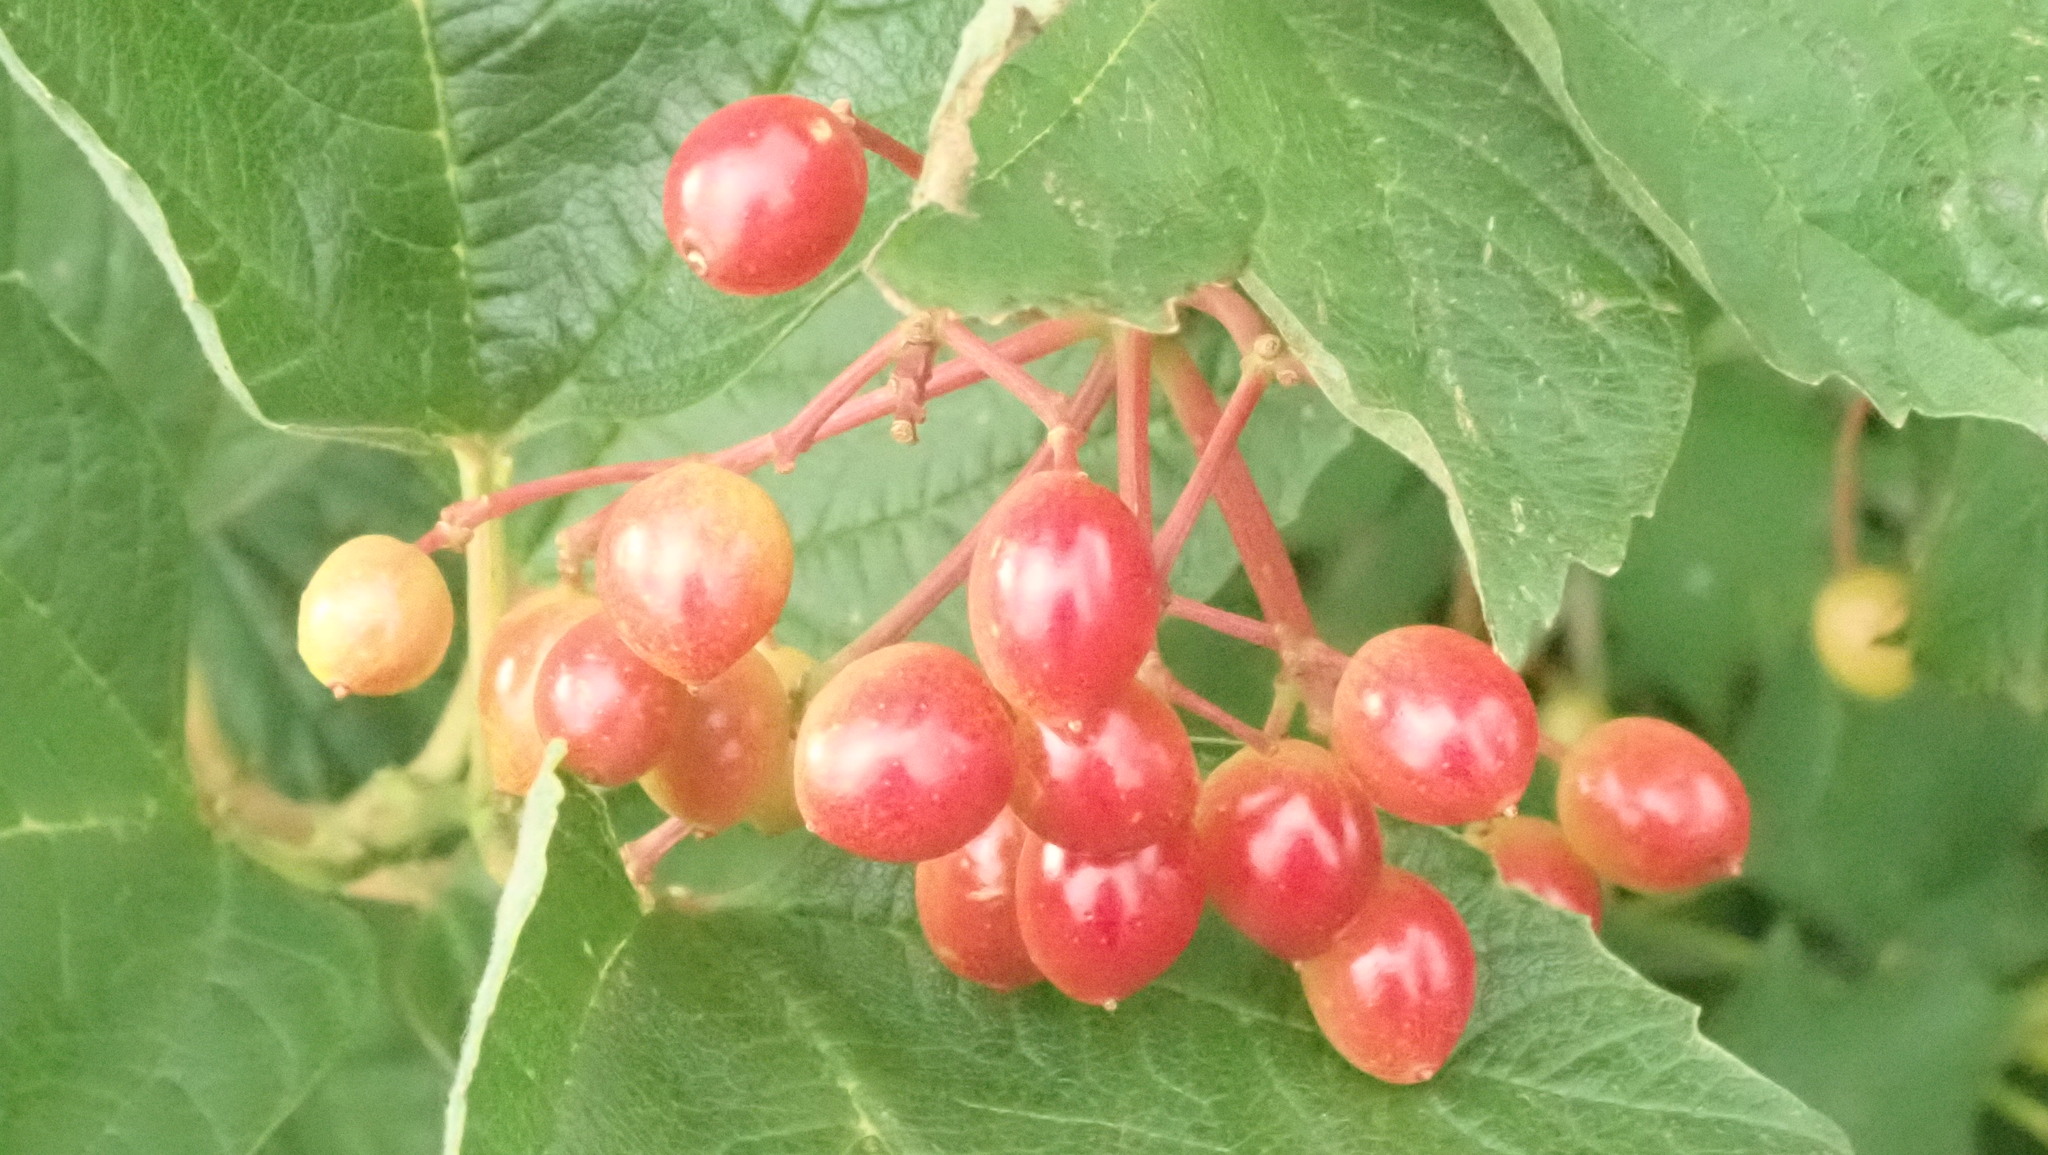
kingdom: Plantae
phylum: Tracheophyta
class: Magnoliopsida
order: Dipsacales
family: Viburnaceae
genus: Viburnum
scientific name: Viburnum opulus
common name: Guelder-rose
